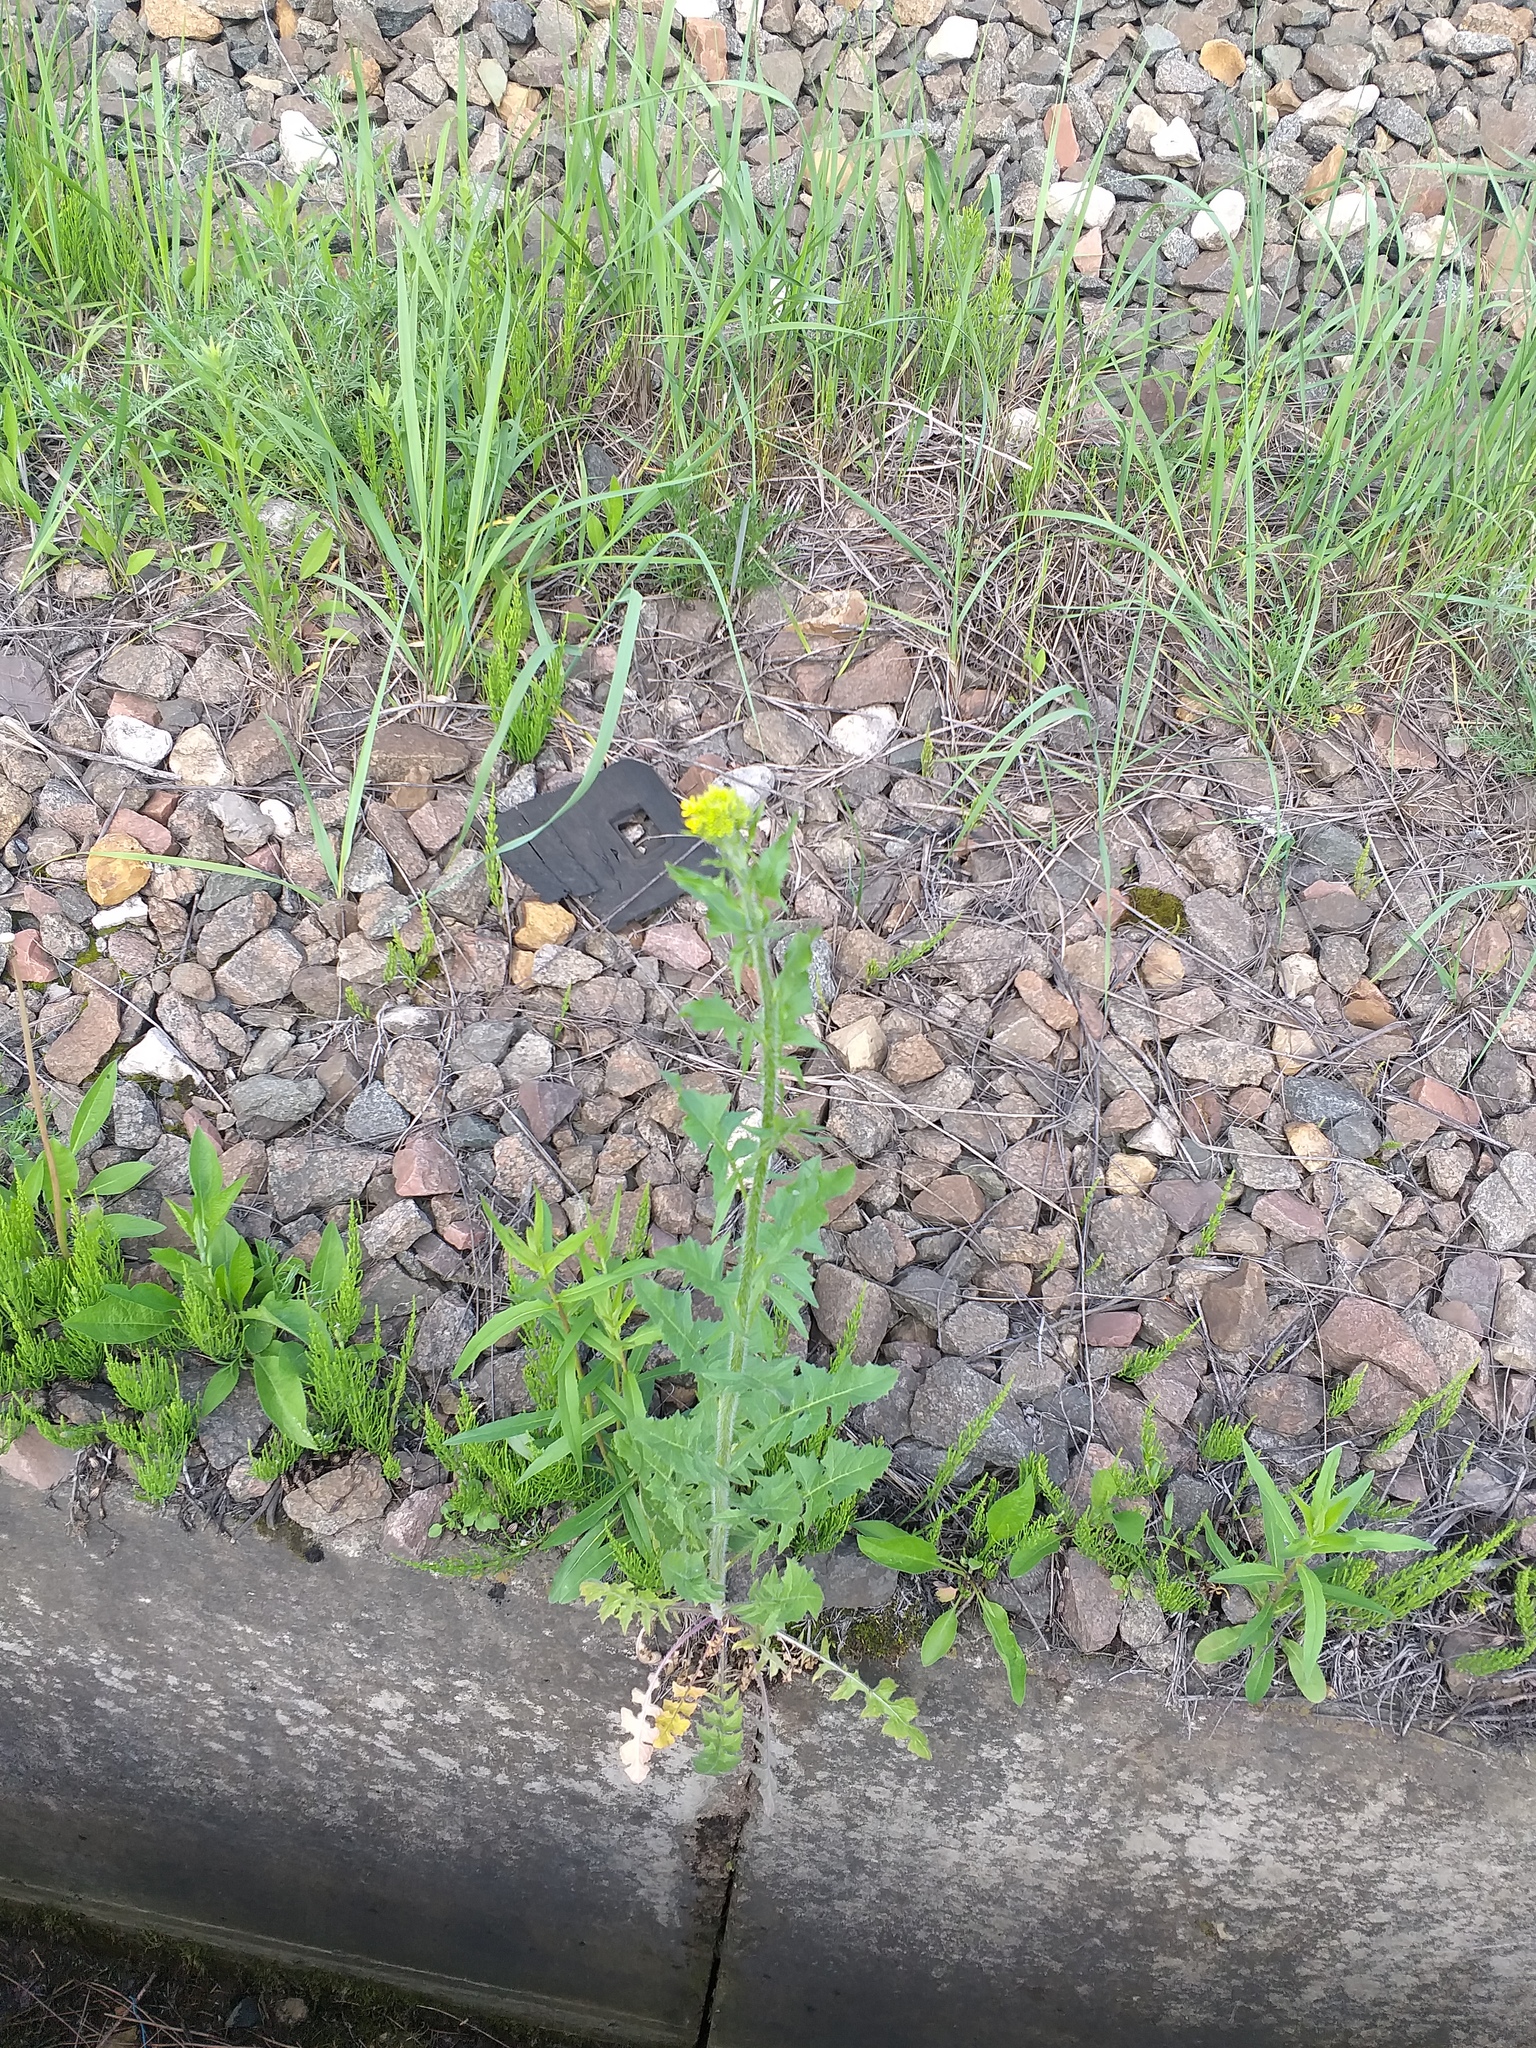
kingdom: Plantae
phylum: Tracheophyta
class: Magnoliopsida
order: Brassicales
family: Brassicaceae
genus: Sisymbrium
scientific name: Sisymbrium loeselii
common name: False london-rocket
